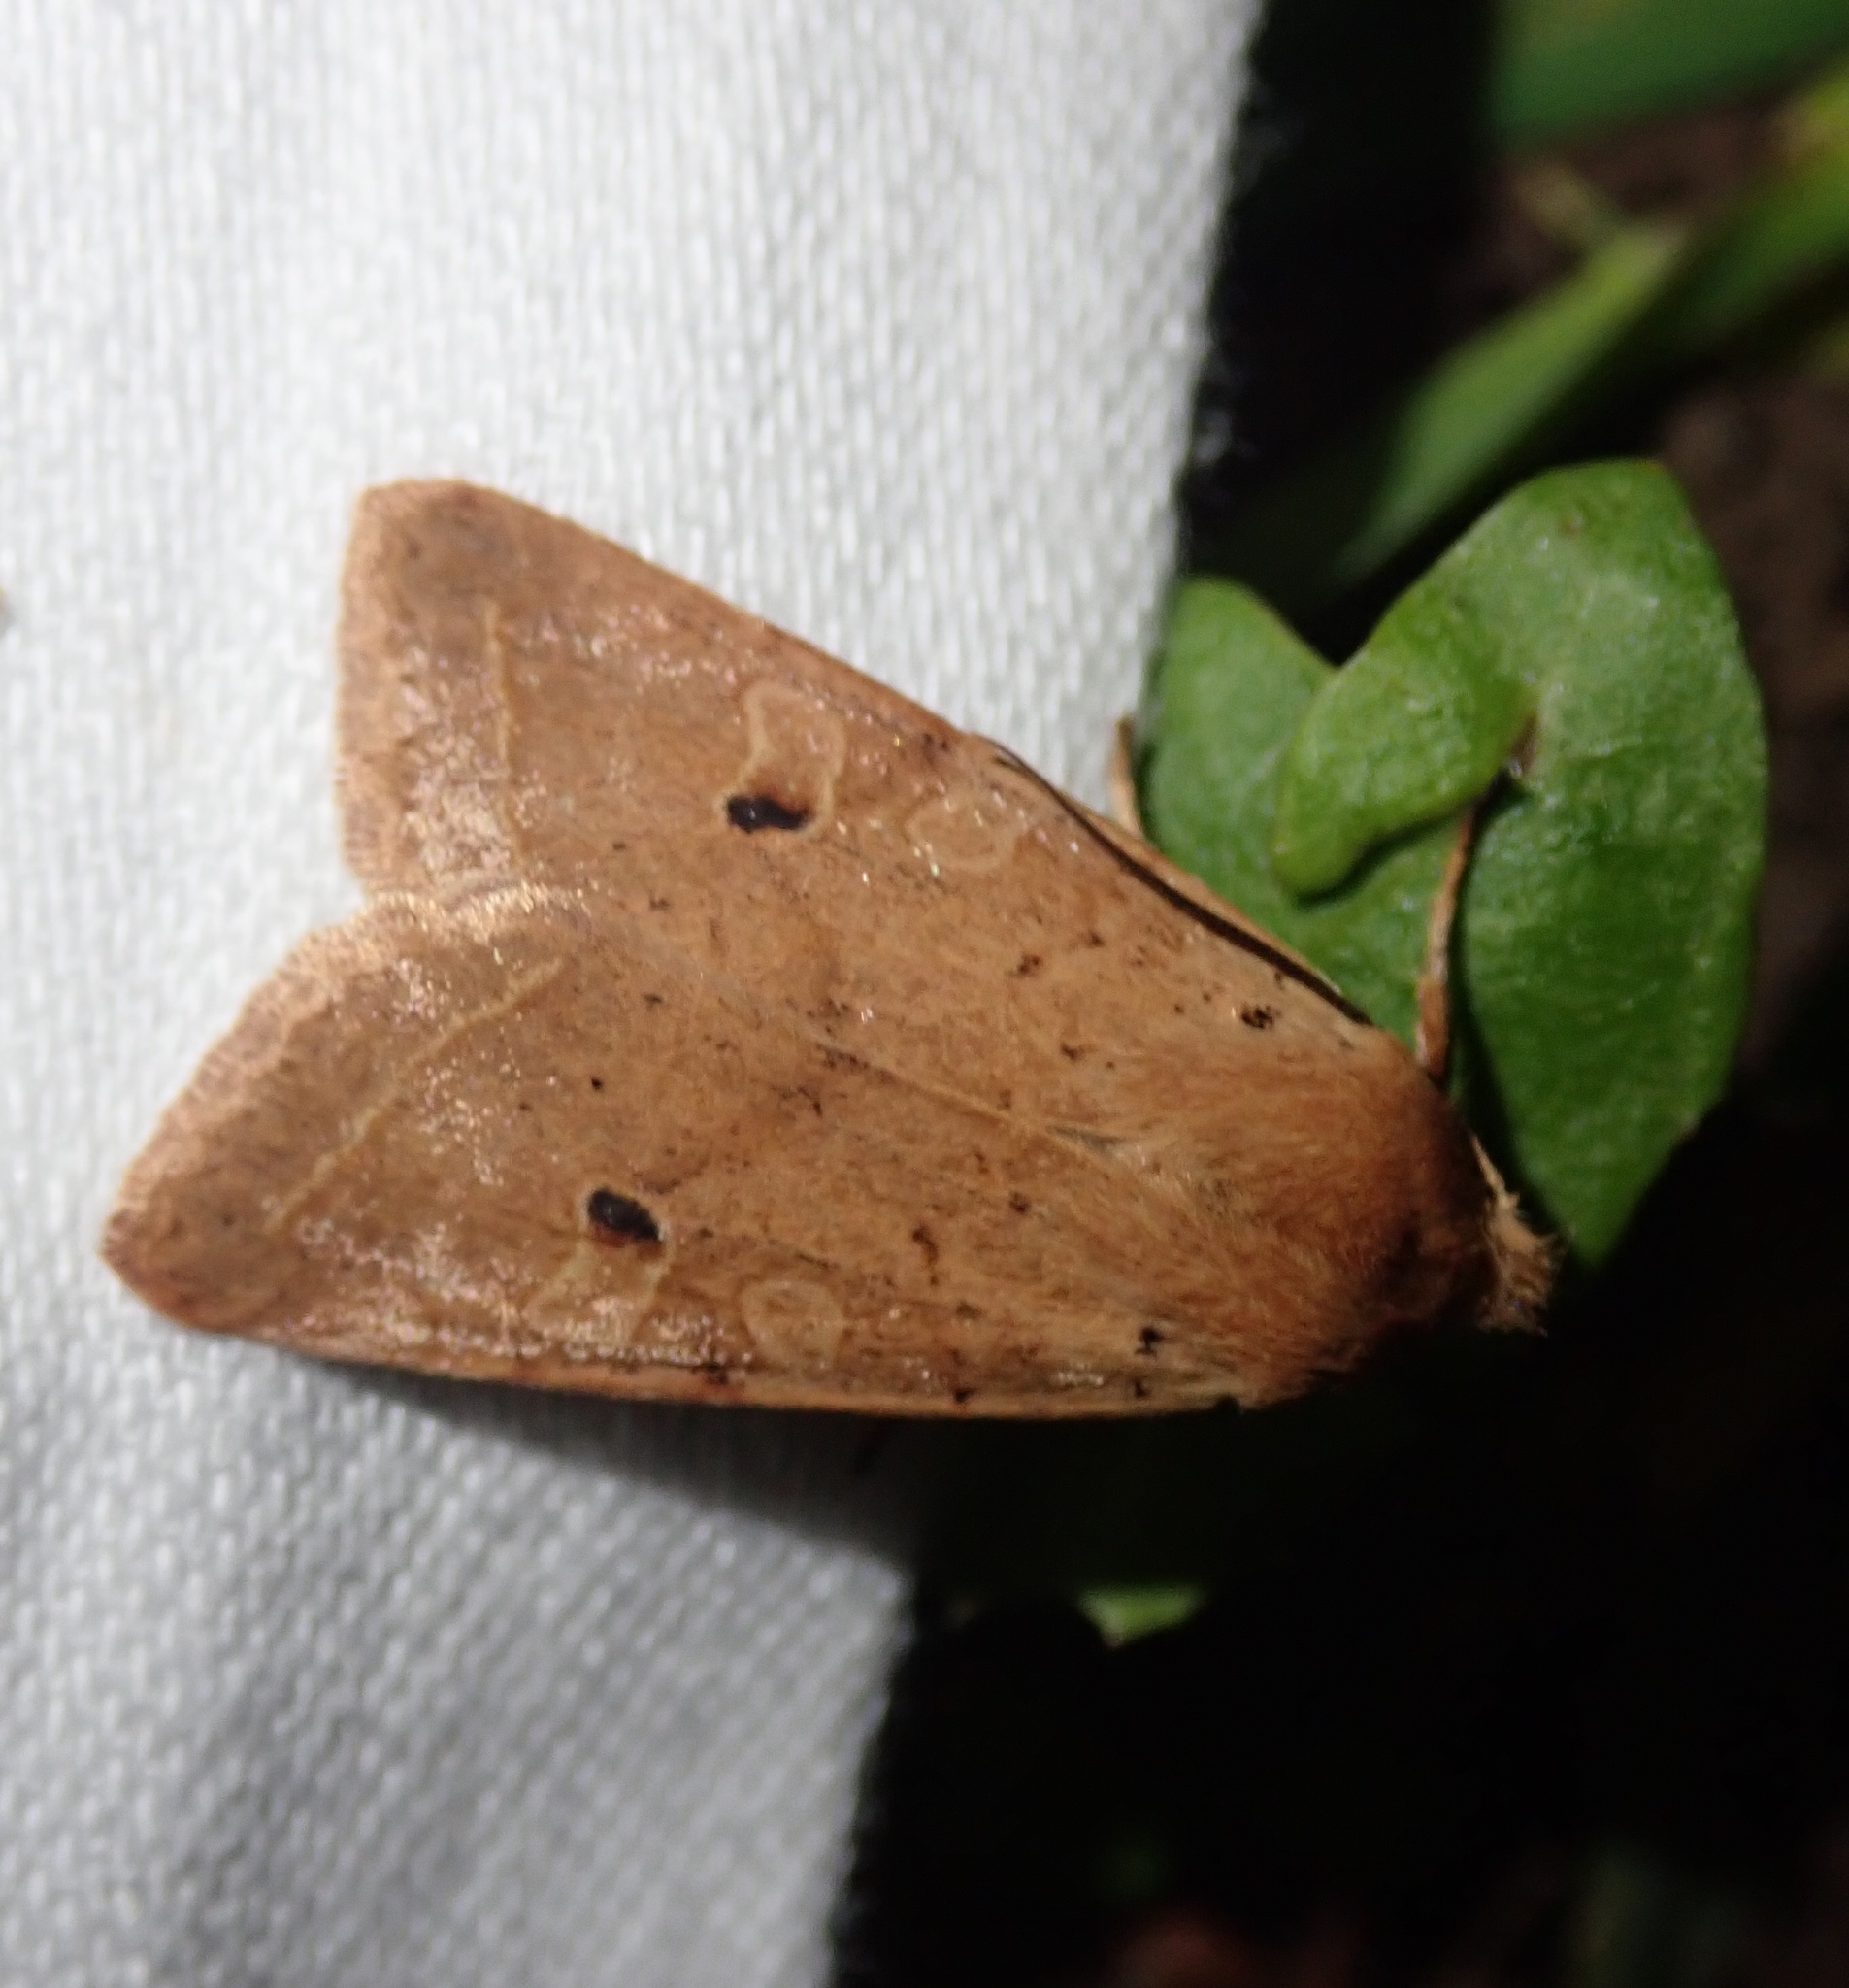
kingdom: Animalia
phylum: Arthropoda
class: Insecta
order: Lepidoptera
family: Noctuidae
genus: Agrochola
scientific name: Agrochola macilenta
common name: Yellow-line quaker
